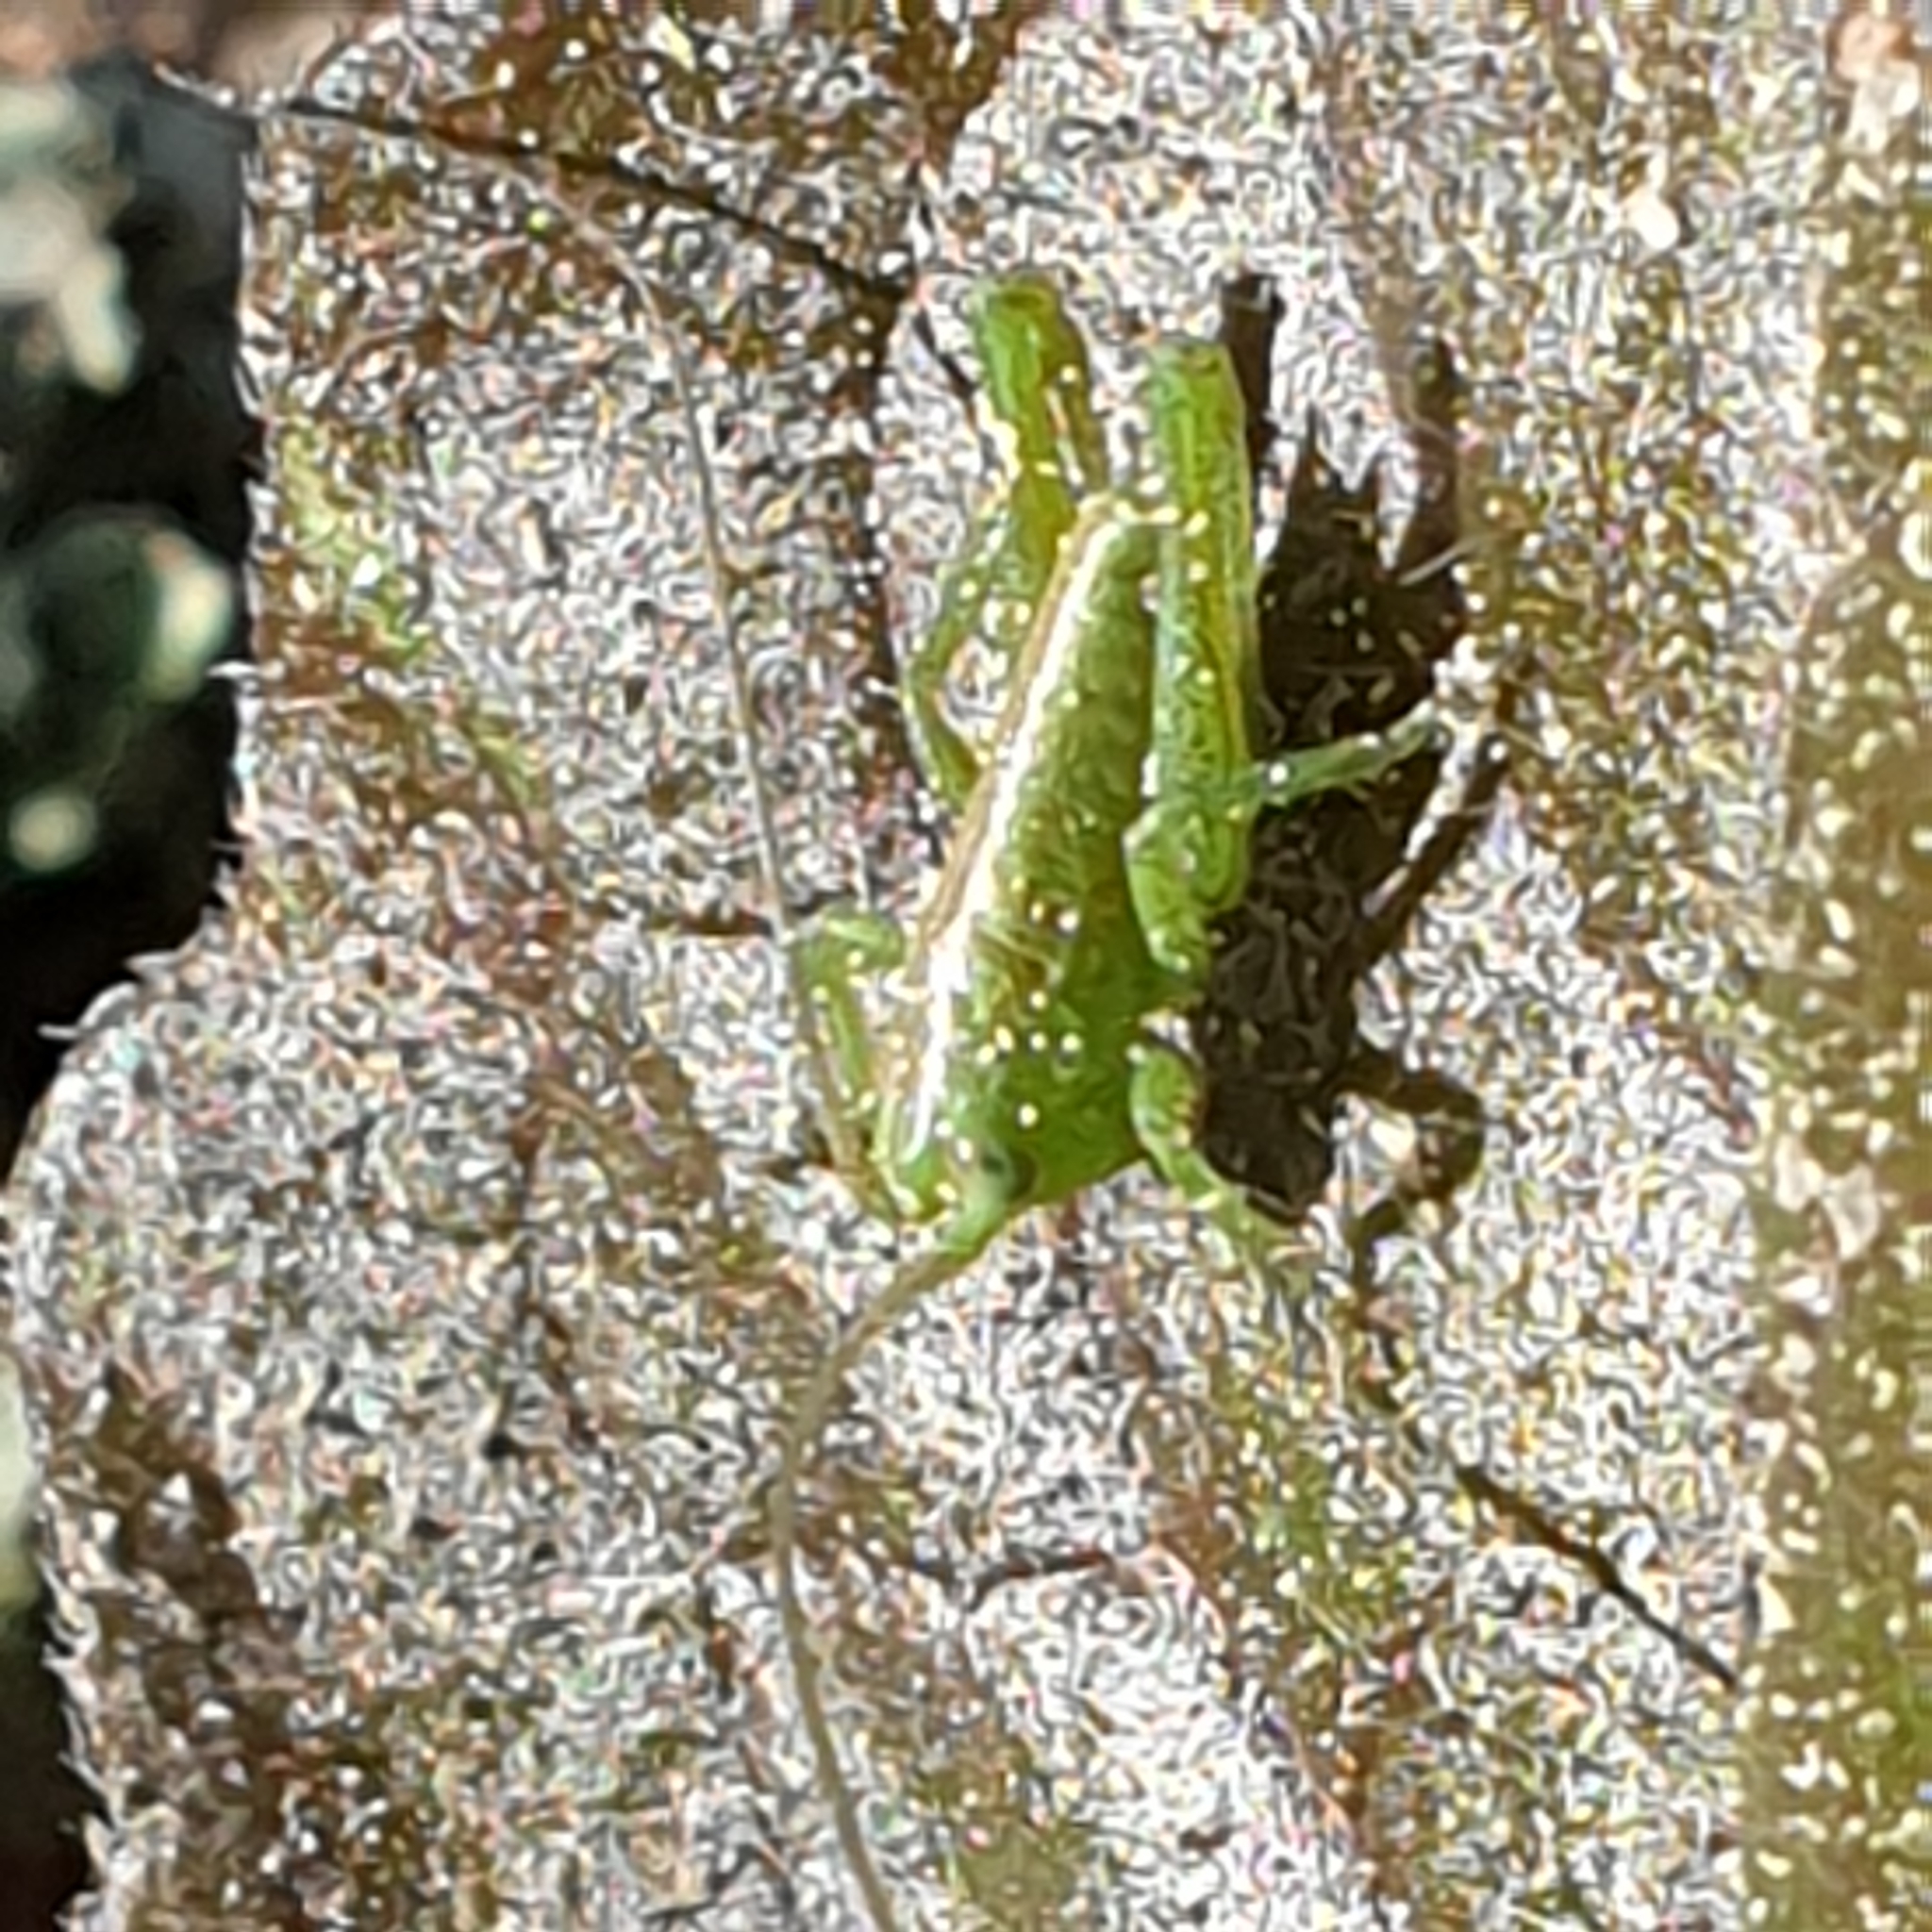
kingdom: Animalia
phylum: Arthropoda
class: Insecta
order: Orthoptera
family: Tettigoniidae
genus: Tettigonia
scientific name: Tettigonia viridissima
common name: Great green bush-cricket
